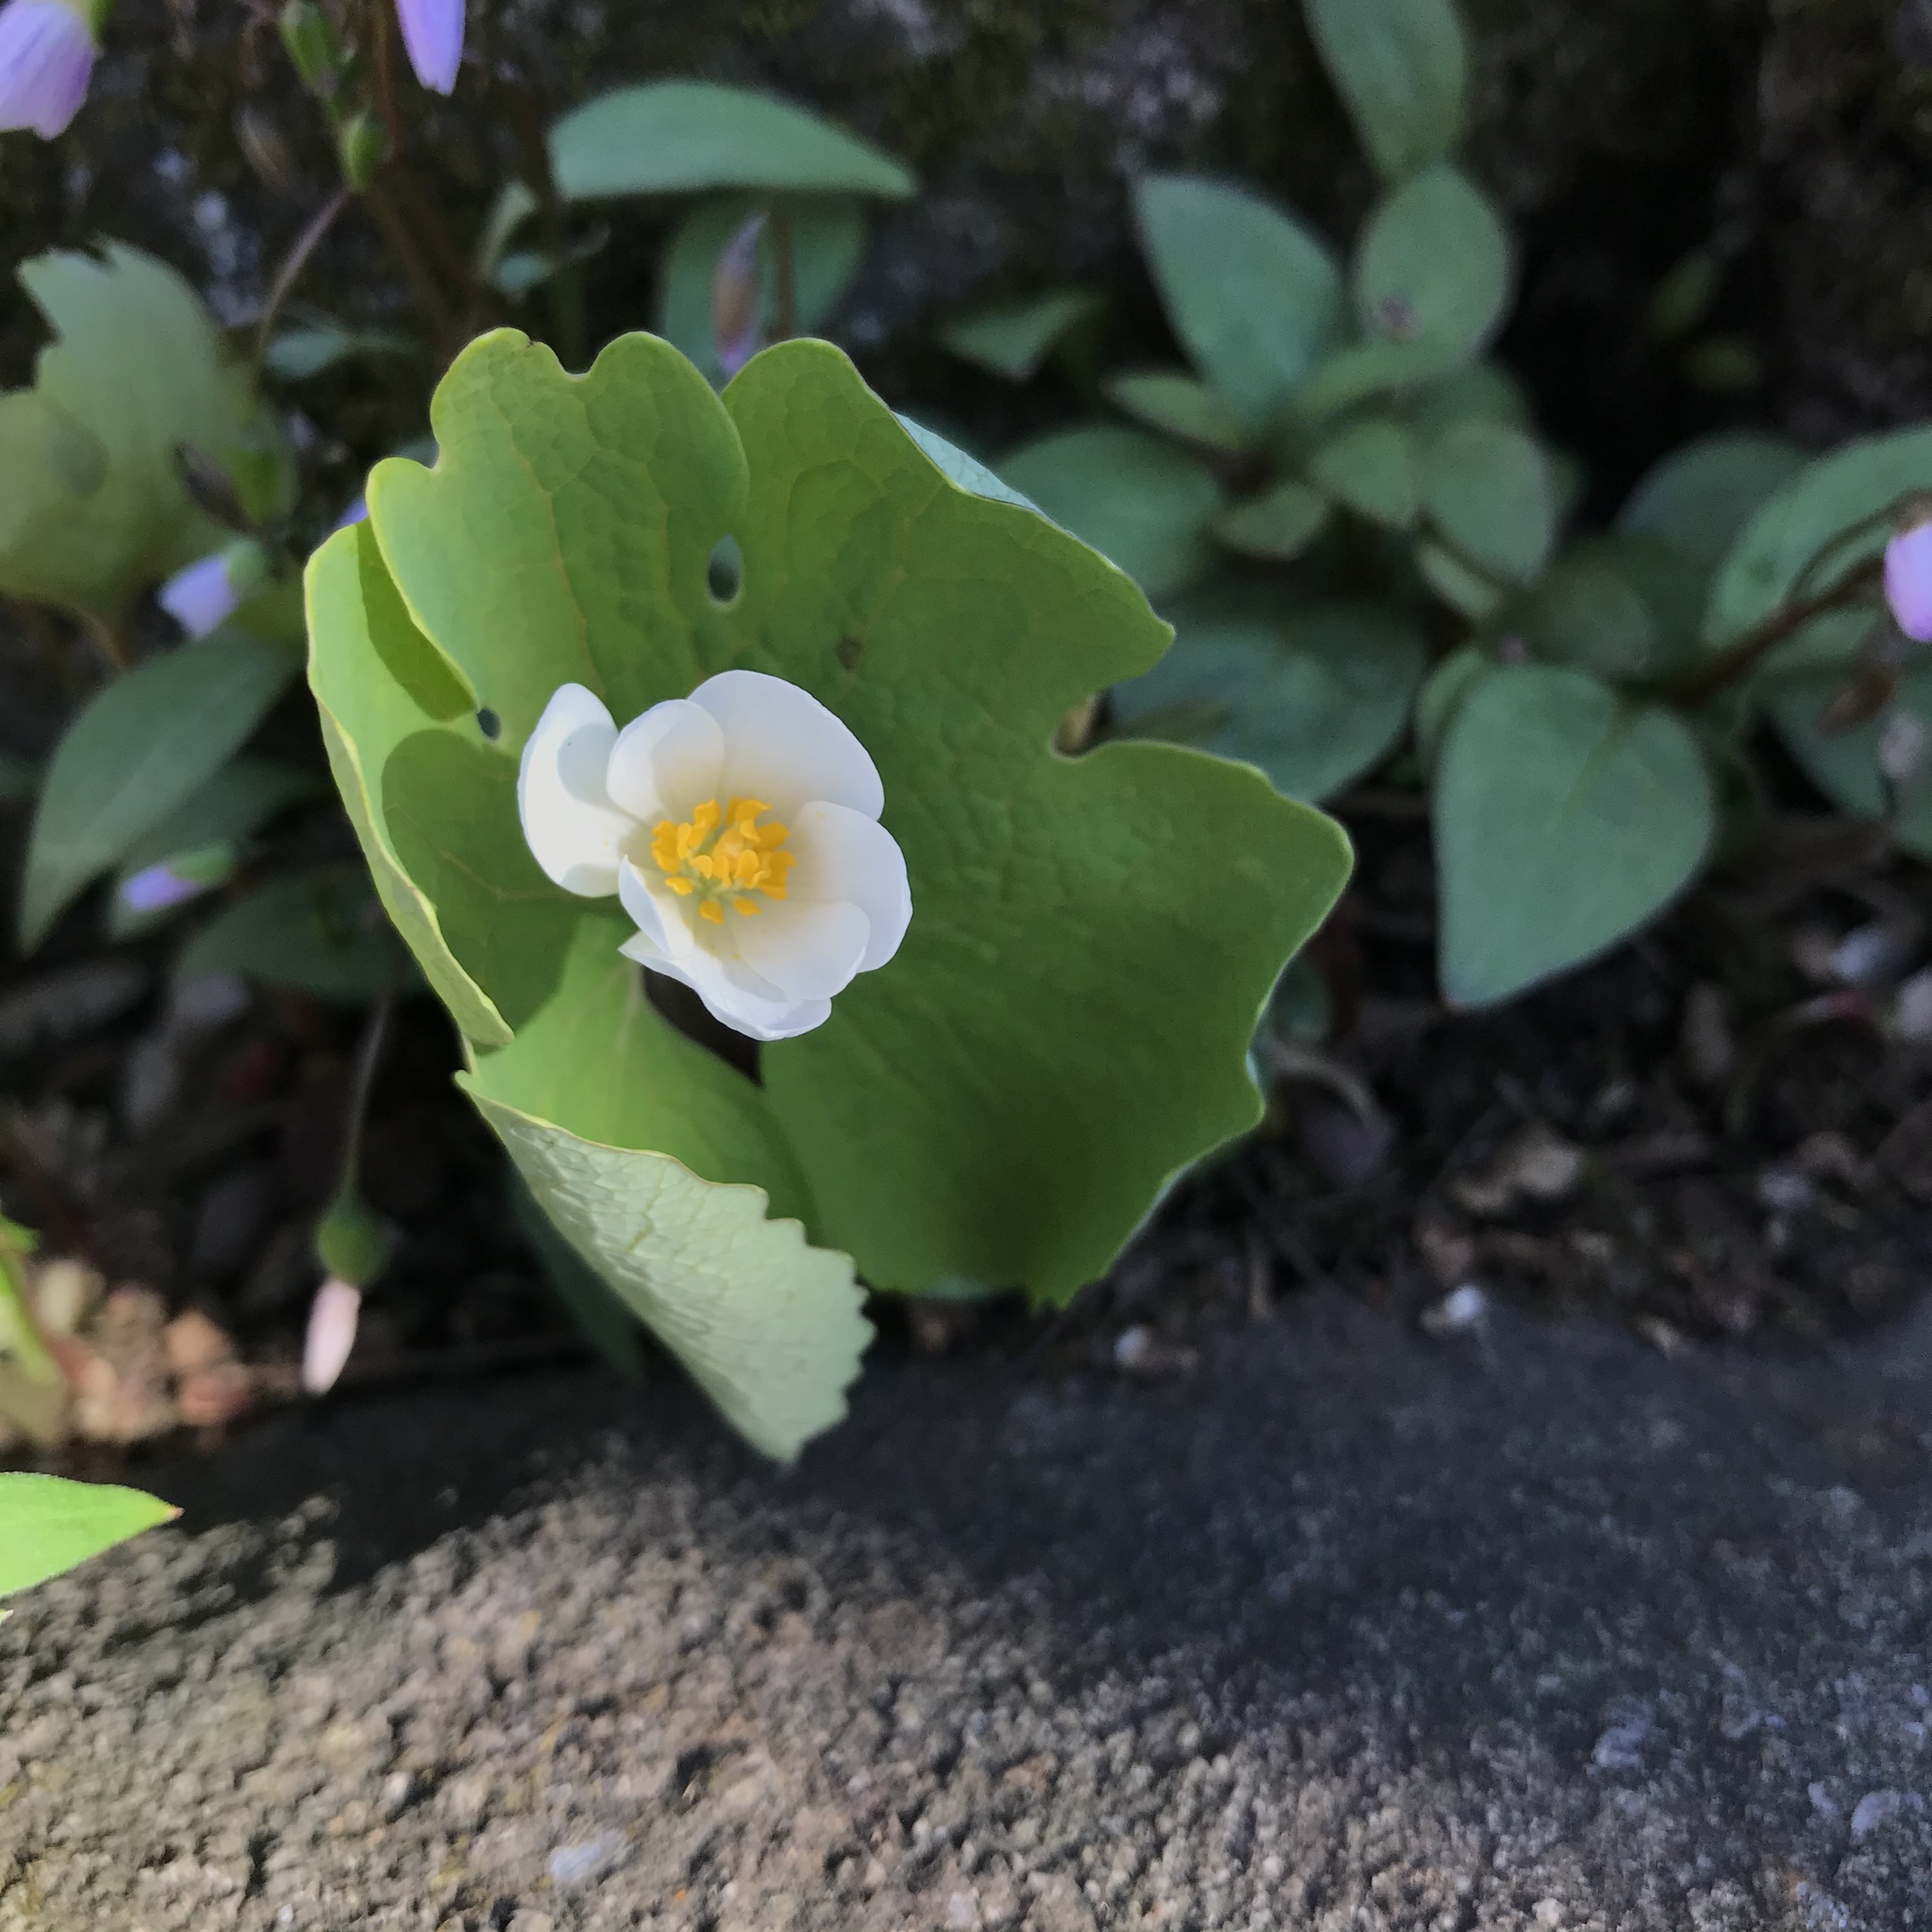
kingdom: Plantae
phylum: Tracheophyta
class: Magnoliopsida
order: Ranunculales
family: Papaveraceae
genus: Sanguinaria
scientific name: Sanguinaria canadensis
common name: Bloodroot
